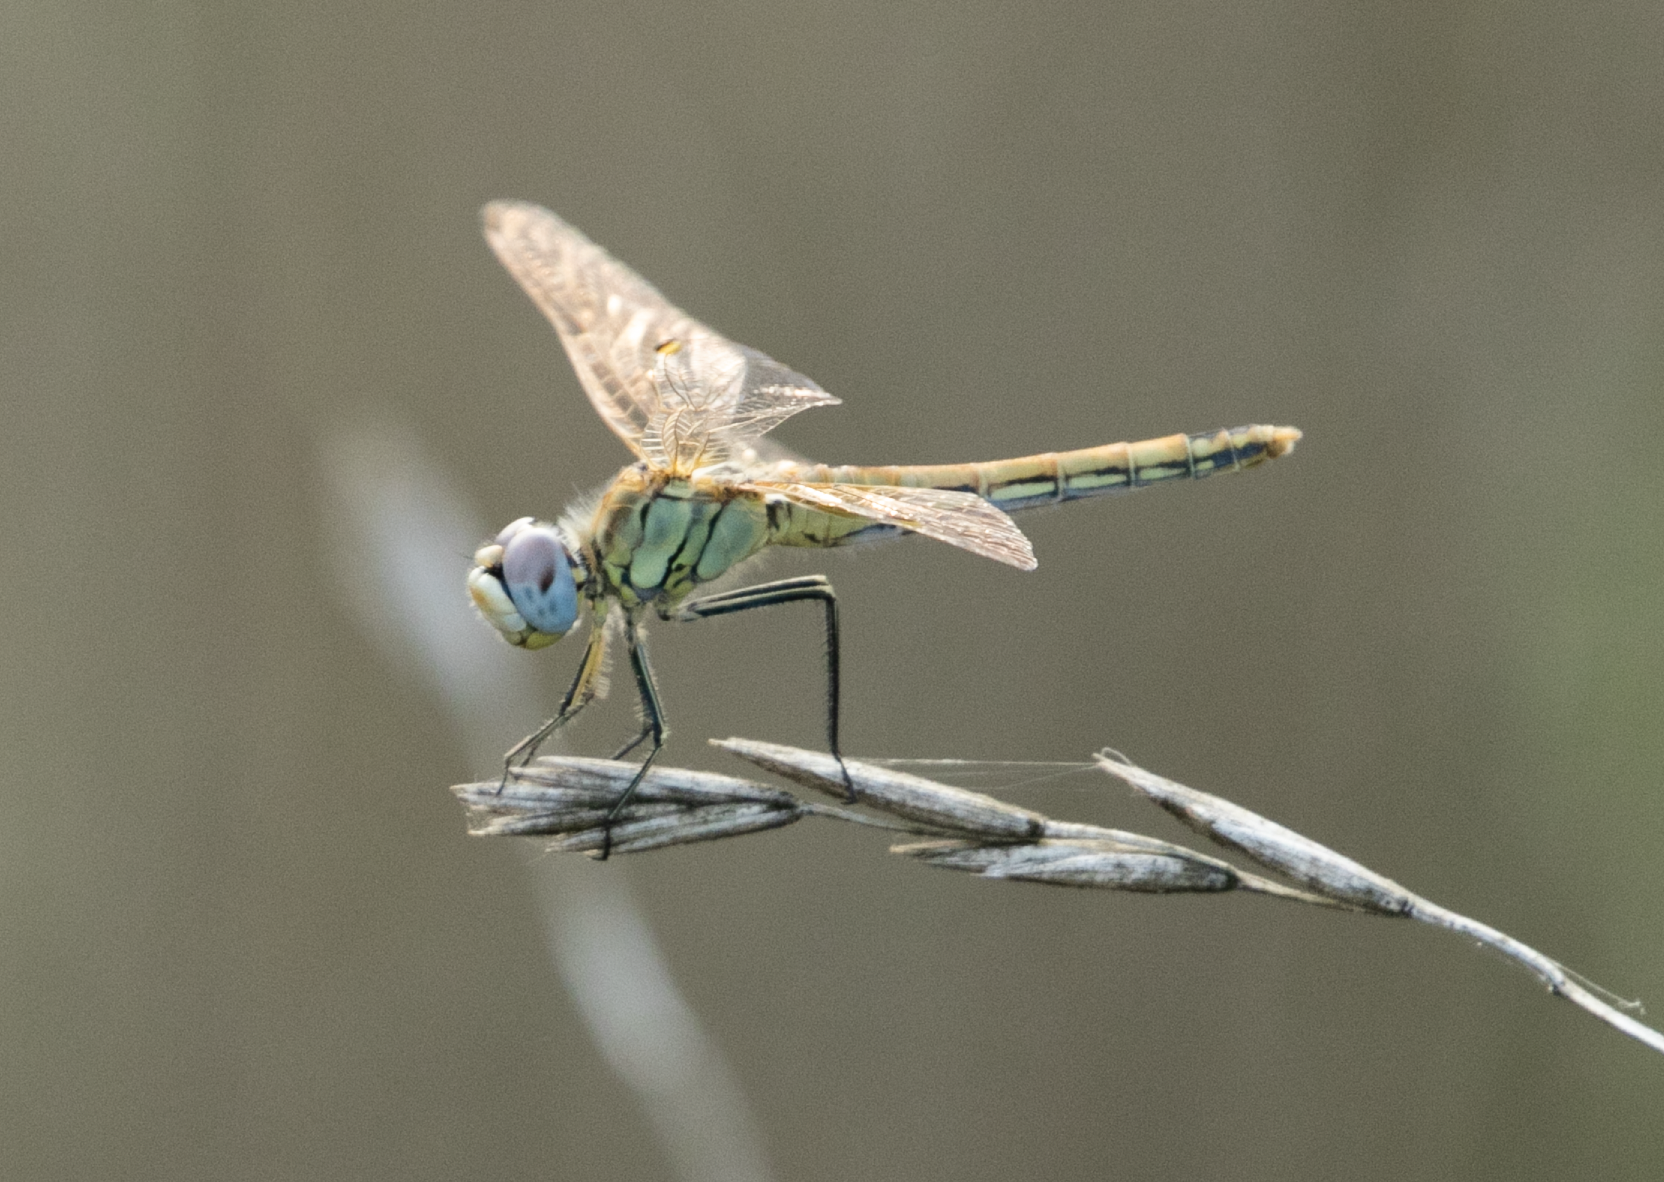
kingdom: Animalia
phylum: Arthropoda
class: Insecta
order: Odonata
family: Libellulidae
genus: Sympetrum
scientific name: Sympetrum fonscolombii
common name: Red-veined darter
